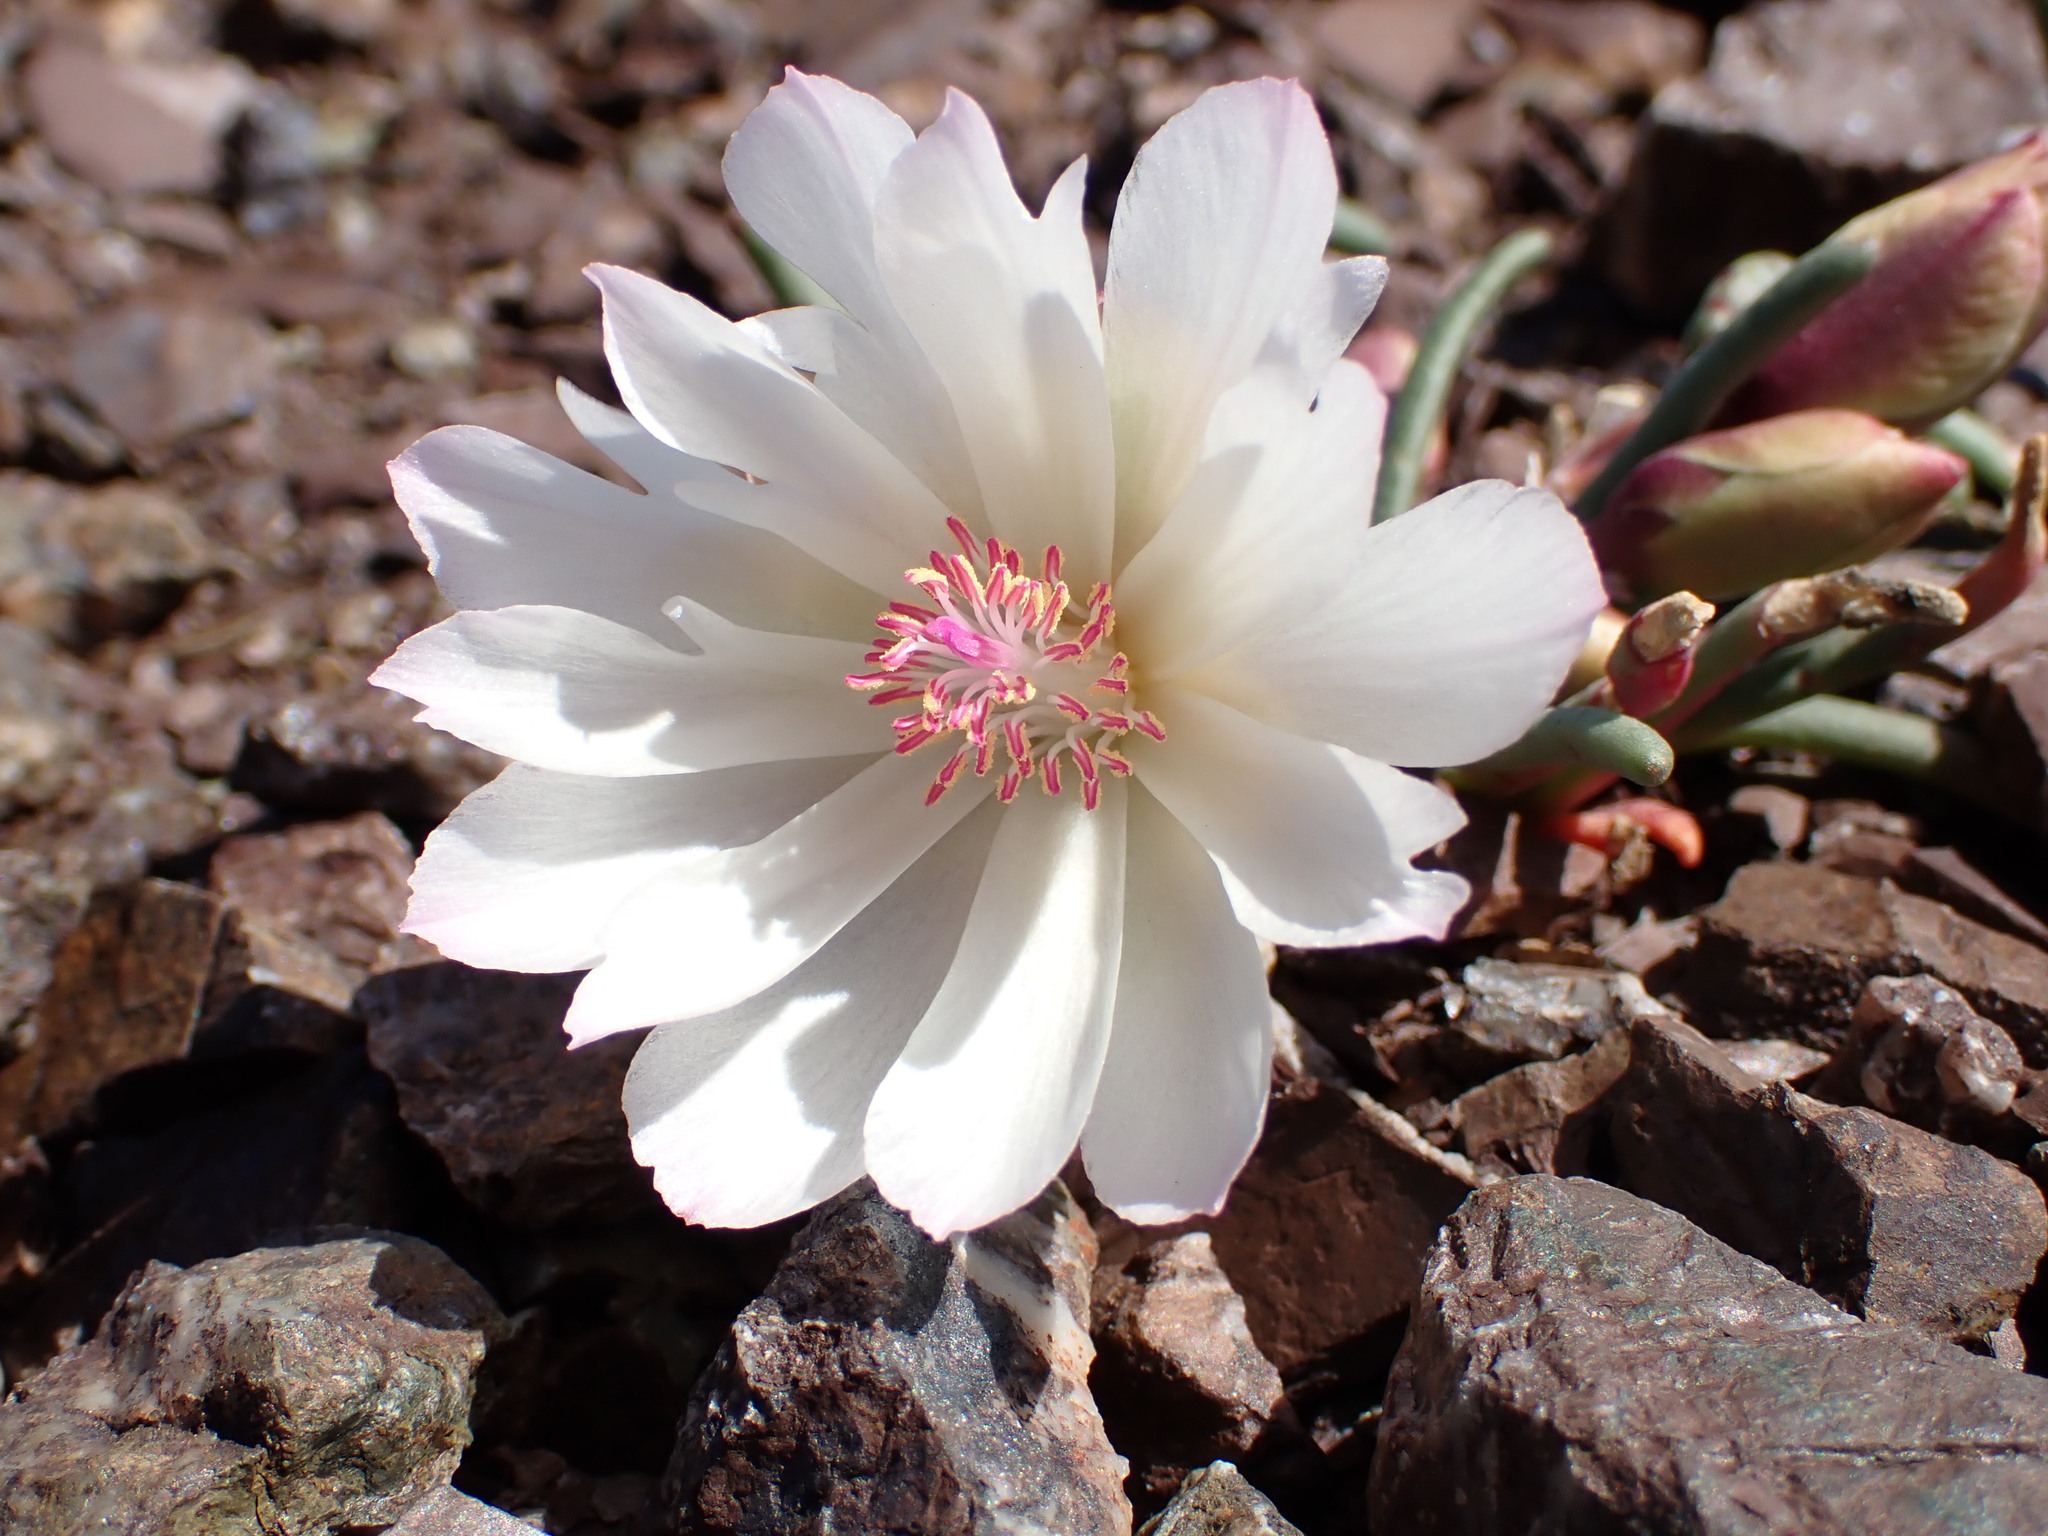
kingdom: Plantae
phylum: Tracheophyta
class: Magnoliopsida
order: Caryophyllales
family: Montiaceae
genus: Lewisia
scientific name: Lewisia rediviva
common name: Bitter-root
